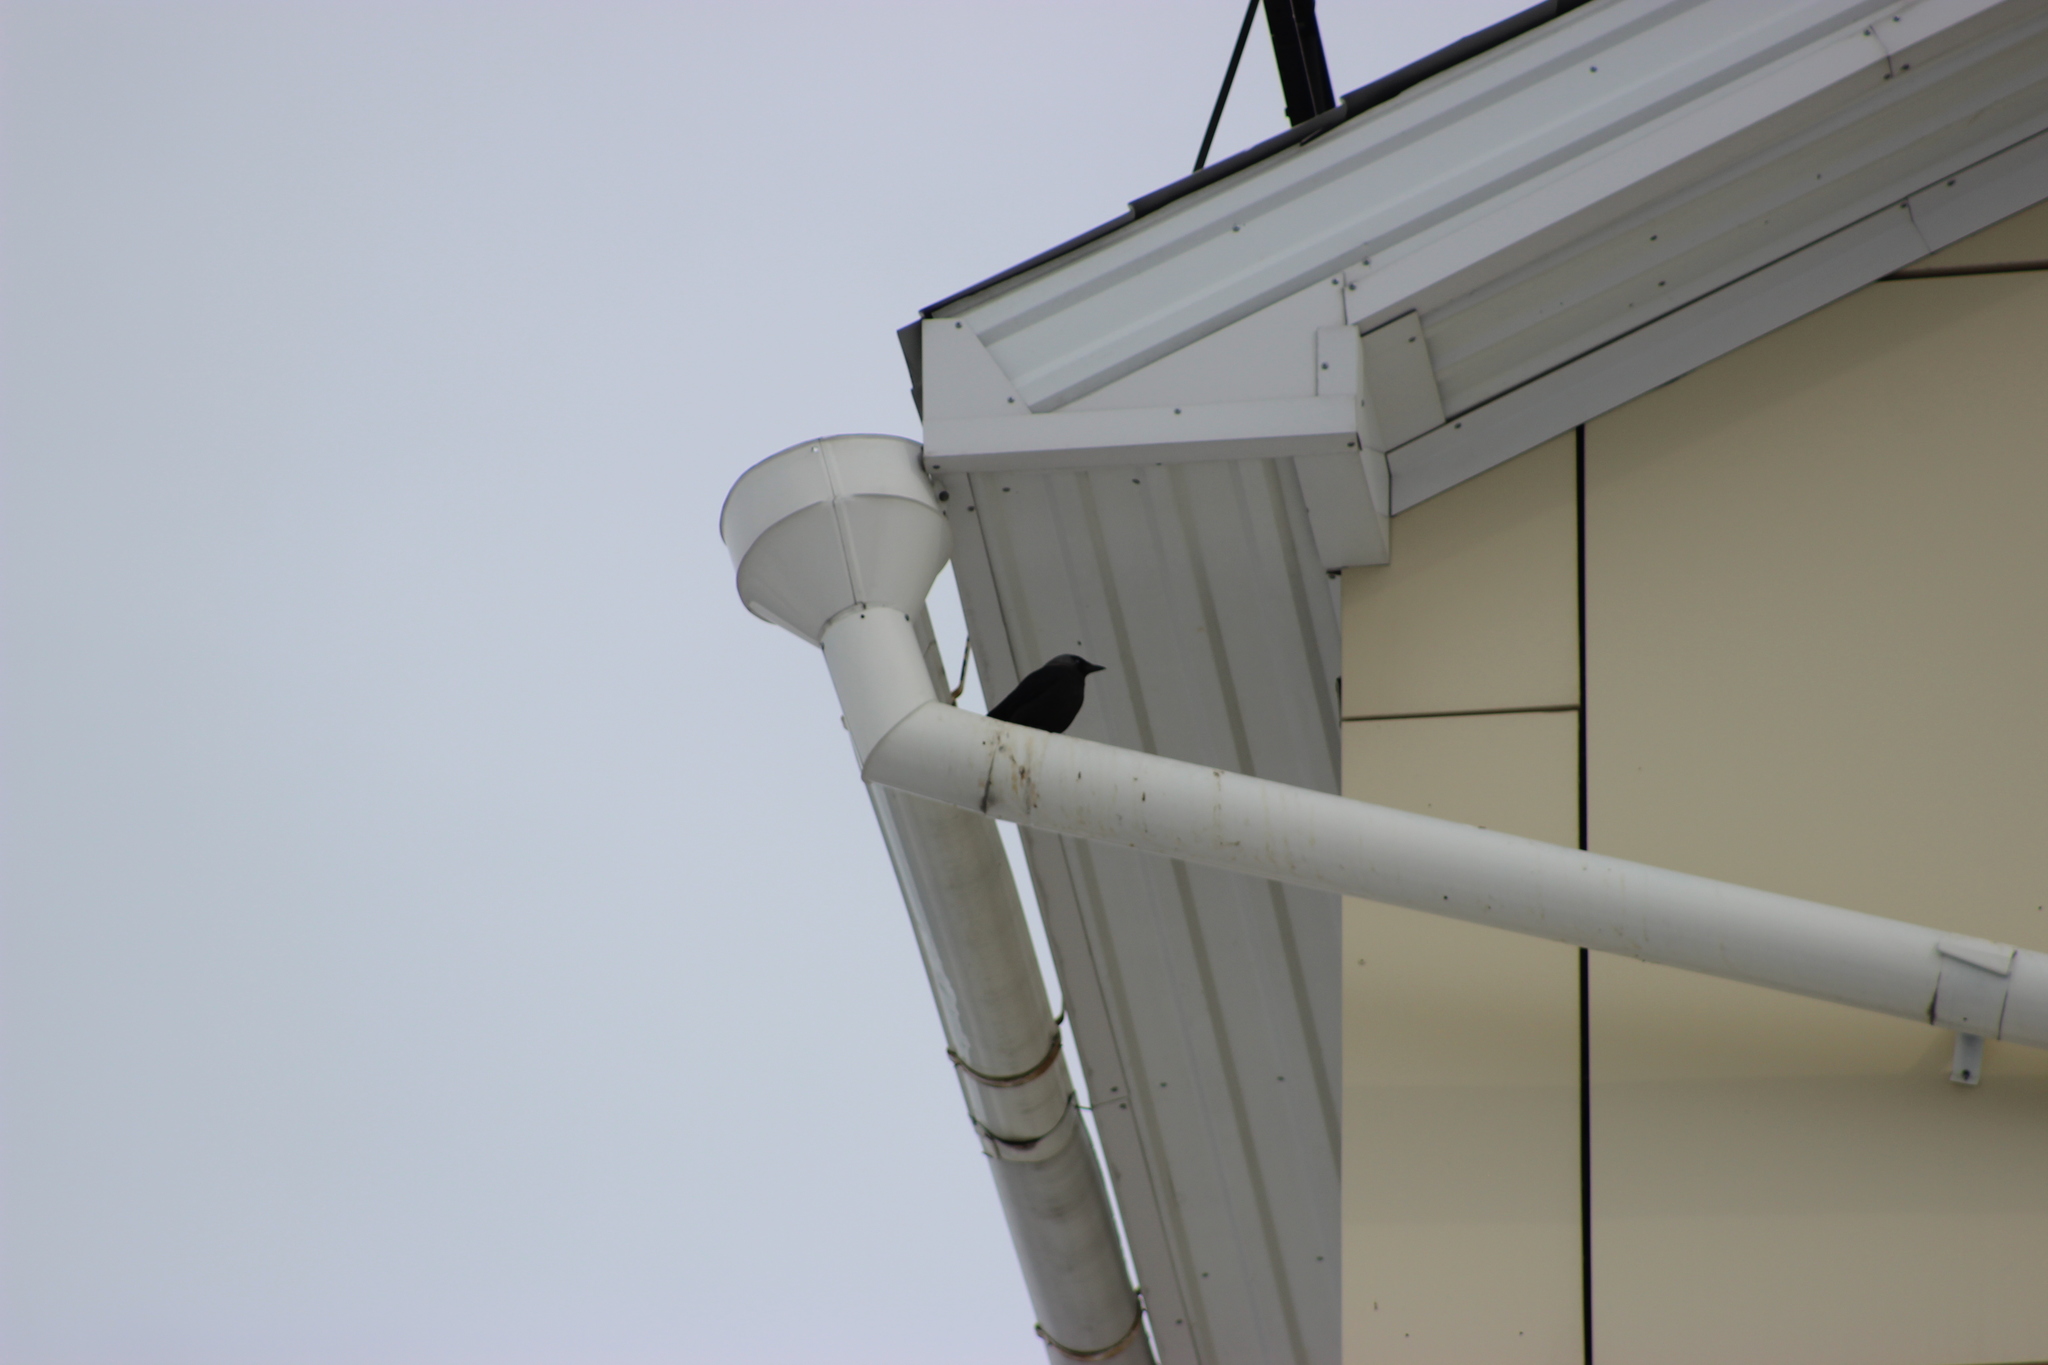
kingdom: Animalia
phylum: Chordata
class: Aves
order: Passeriformes
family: Corvidae
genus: Coloeus
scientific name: Coloeus monedula
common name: Western jackdaw
